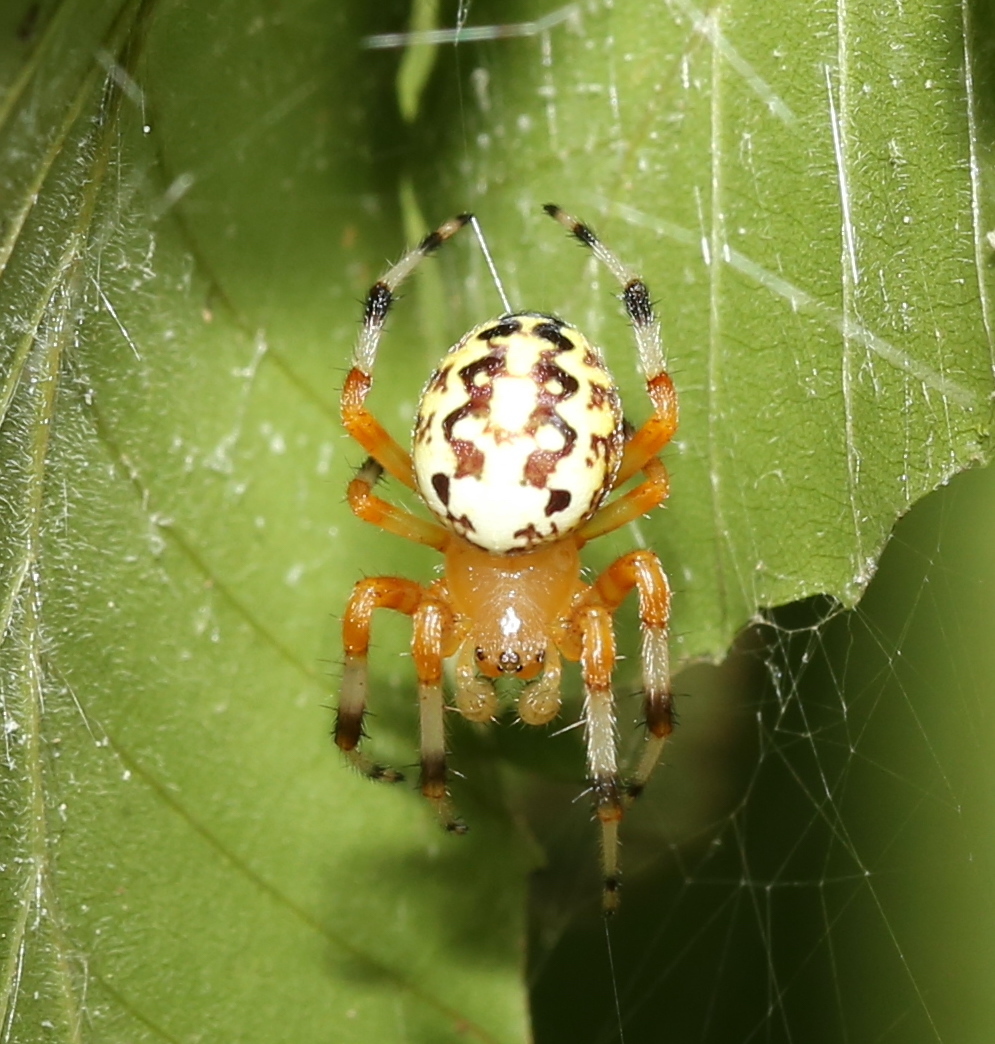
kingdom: Animalia
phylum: Arthropoda
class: Arachnida
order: Araneae
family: Araneidae
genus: Araneus
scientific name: Araneus marmoreus
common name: Marbled orbweaver
